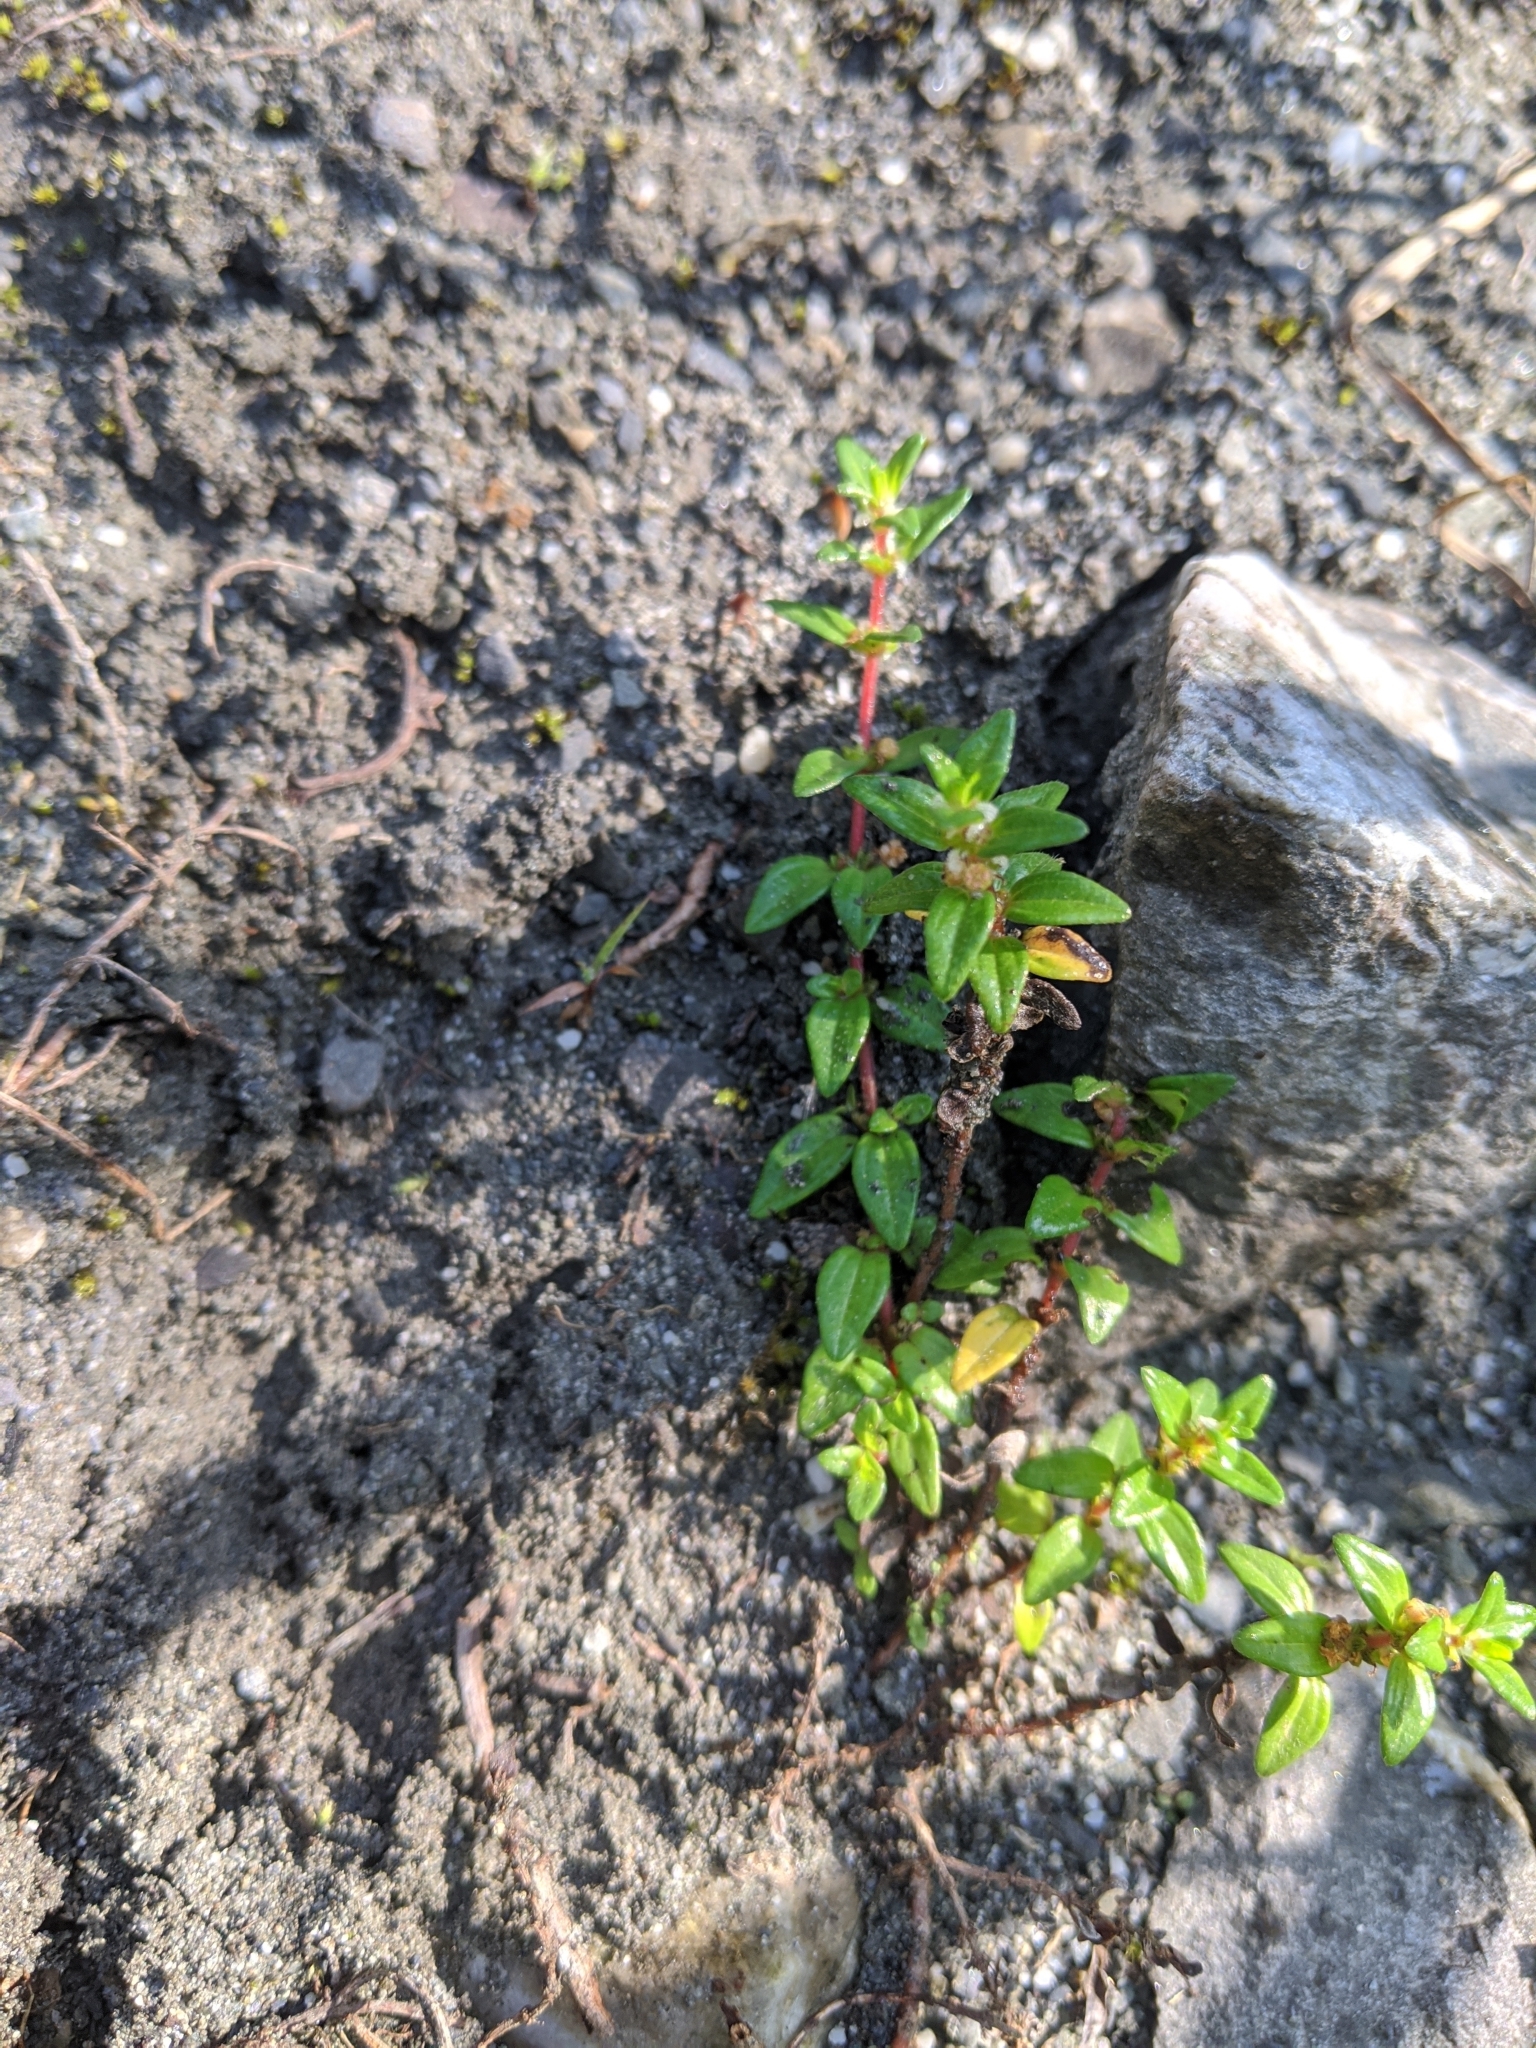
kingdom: Plantae
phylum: Tracheophyta
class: Magnoliopsida
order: Rosales
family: Urticaceae
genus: Gonostegia
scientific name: Gonostegia parvifolia
